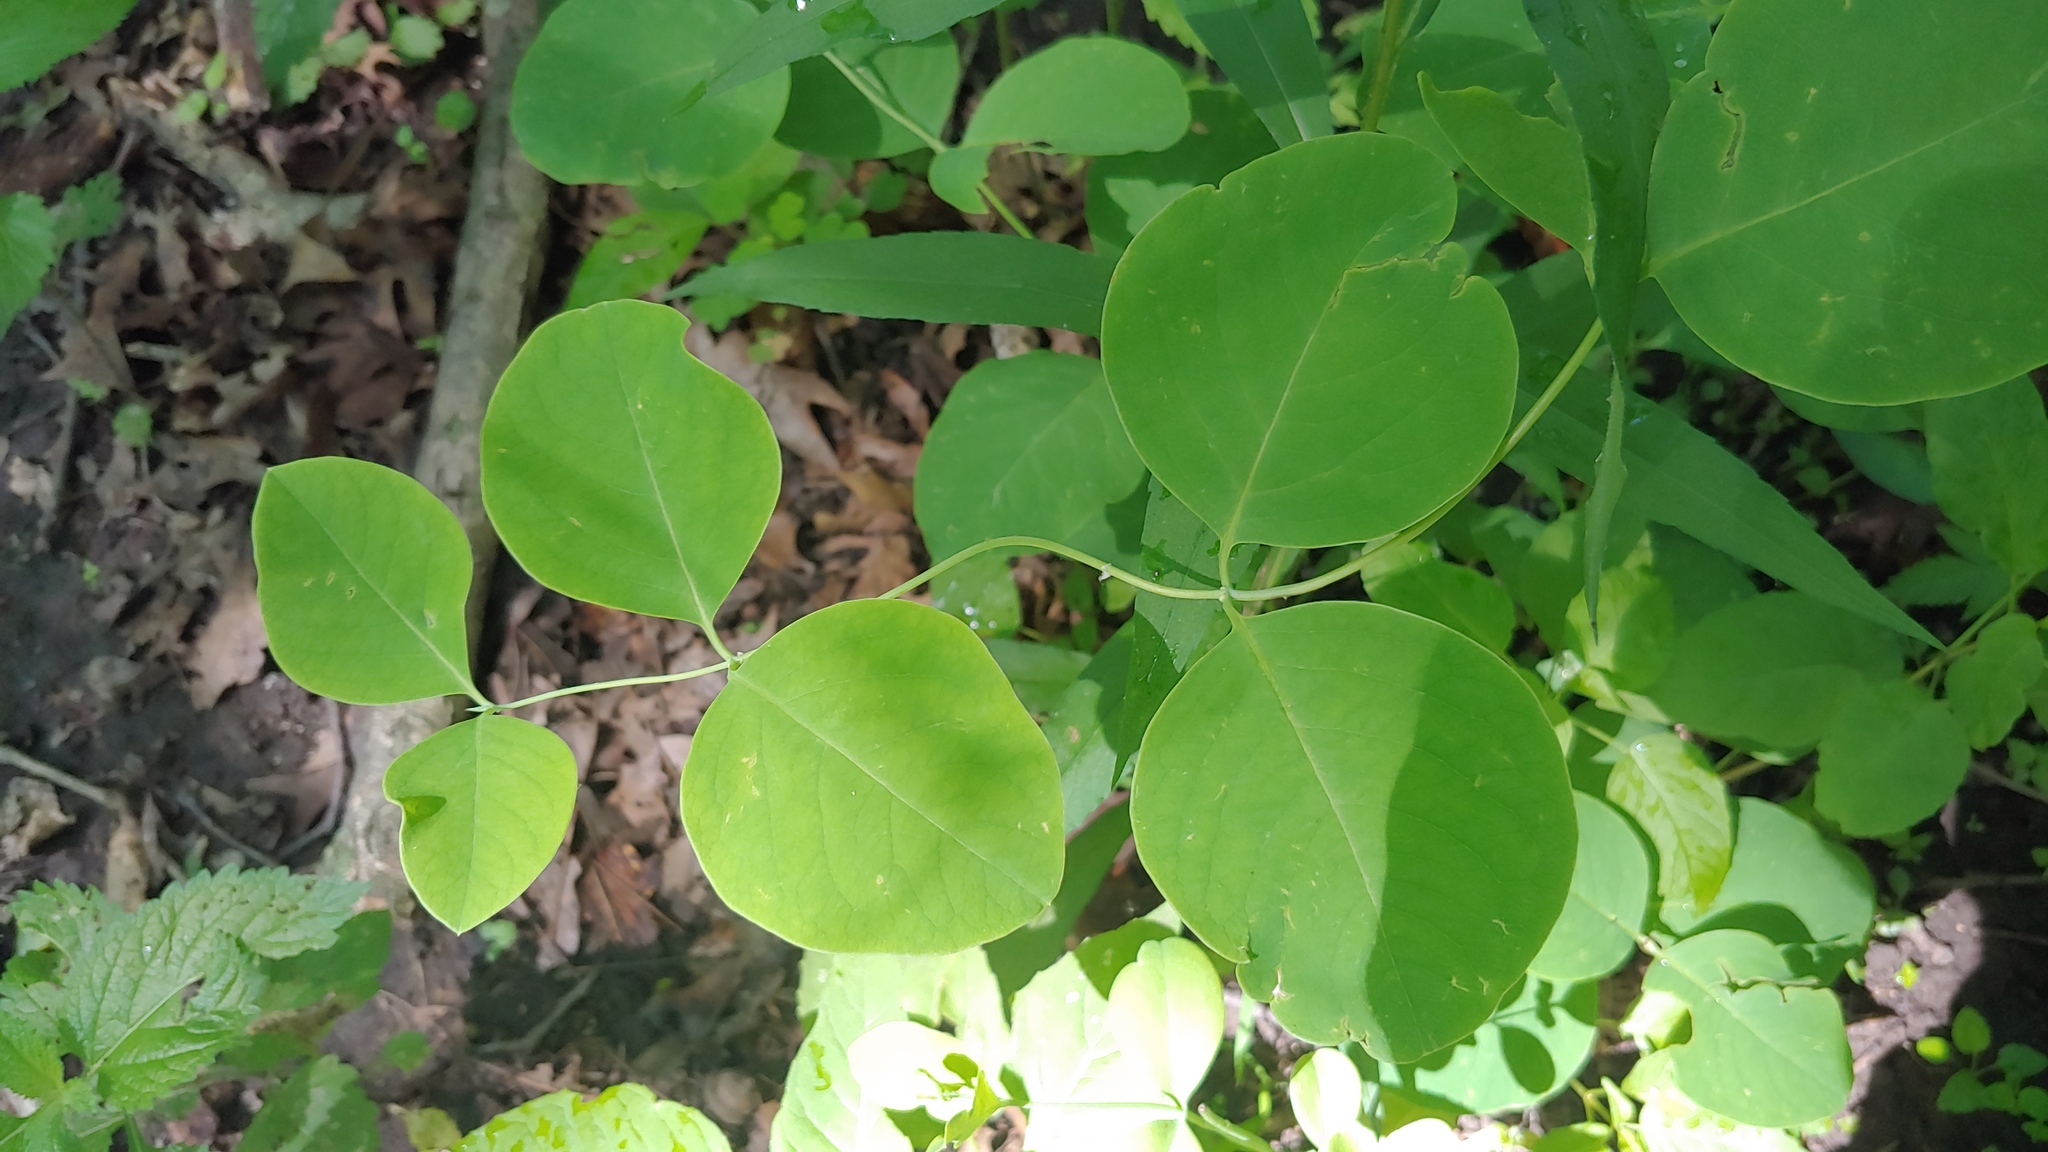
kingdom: Plantae
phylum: Tracheophyta
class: Magnoliopsida
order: Dipsacales
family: Caprifoliaceae
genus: Lonicera
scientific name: Lonicera reticulata
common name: Grape honeysuckle
